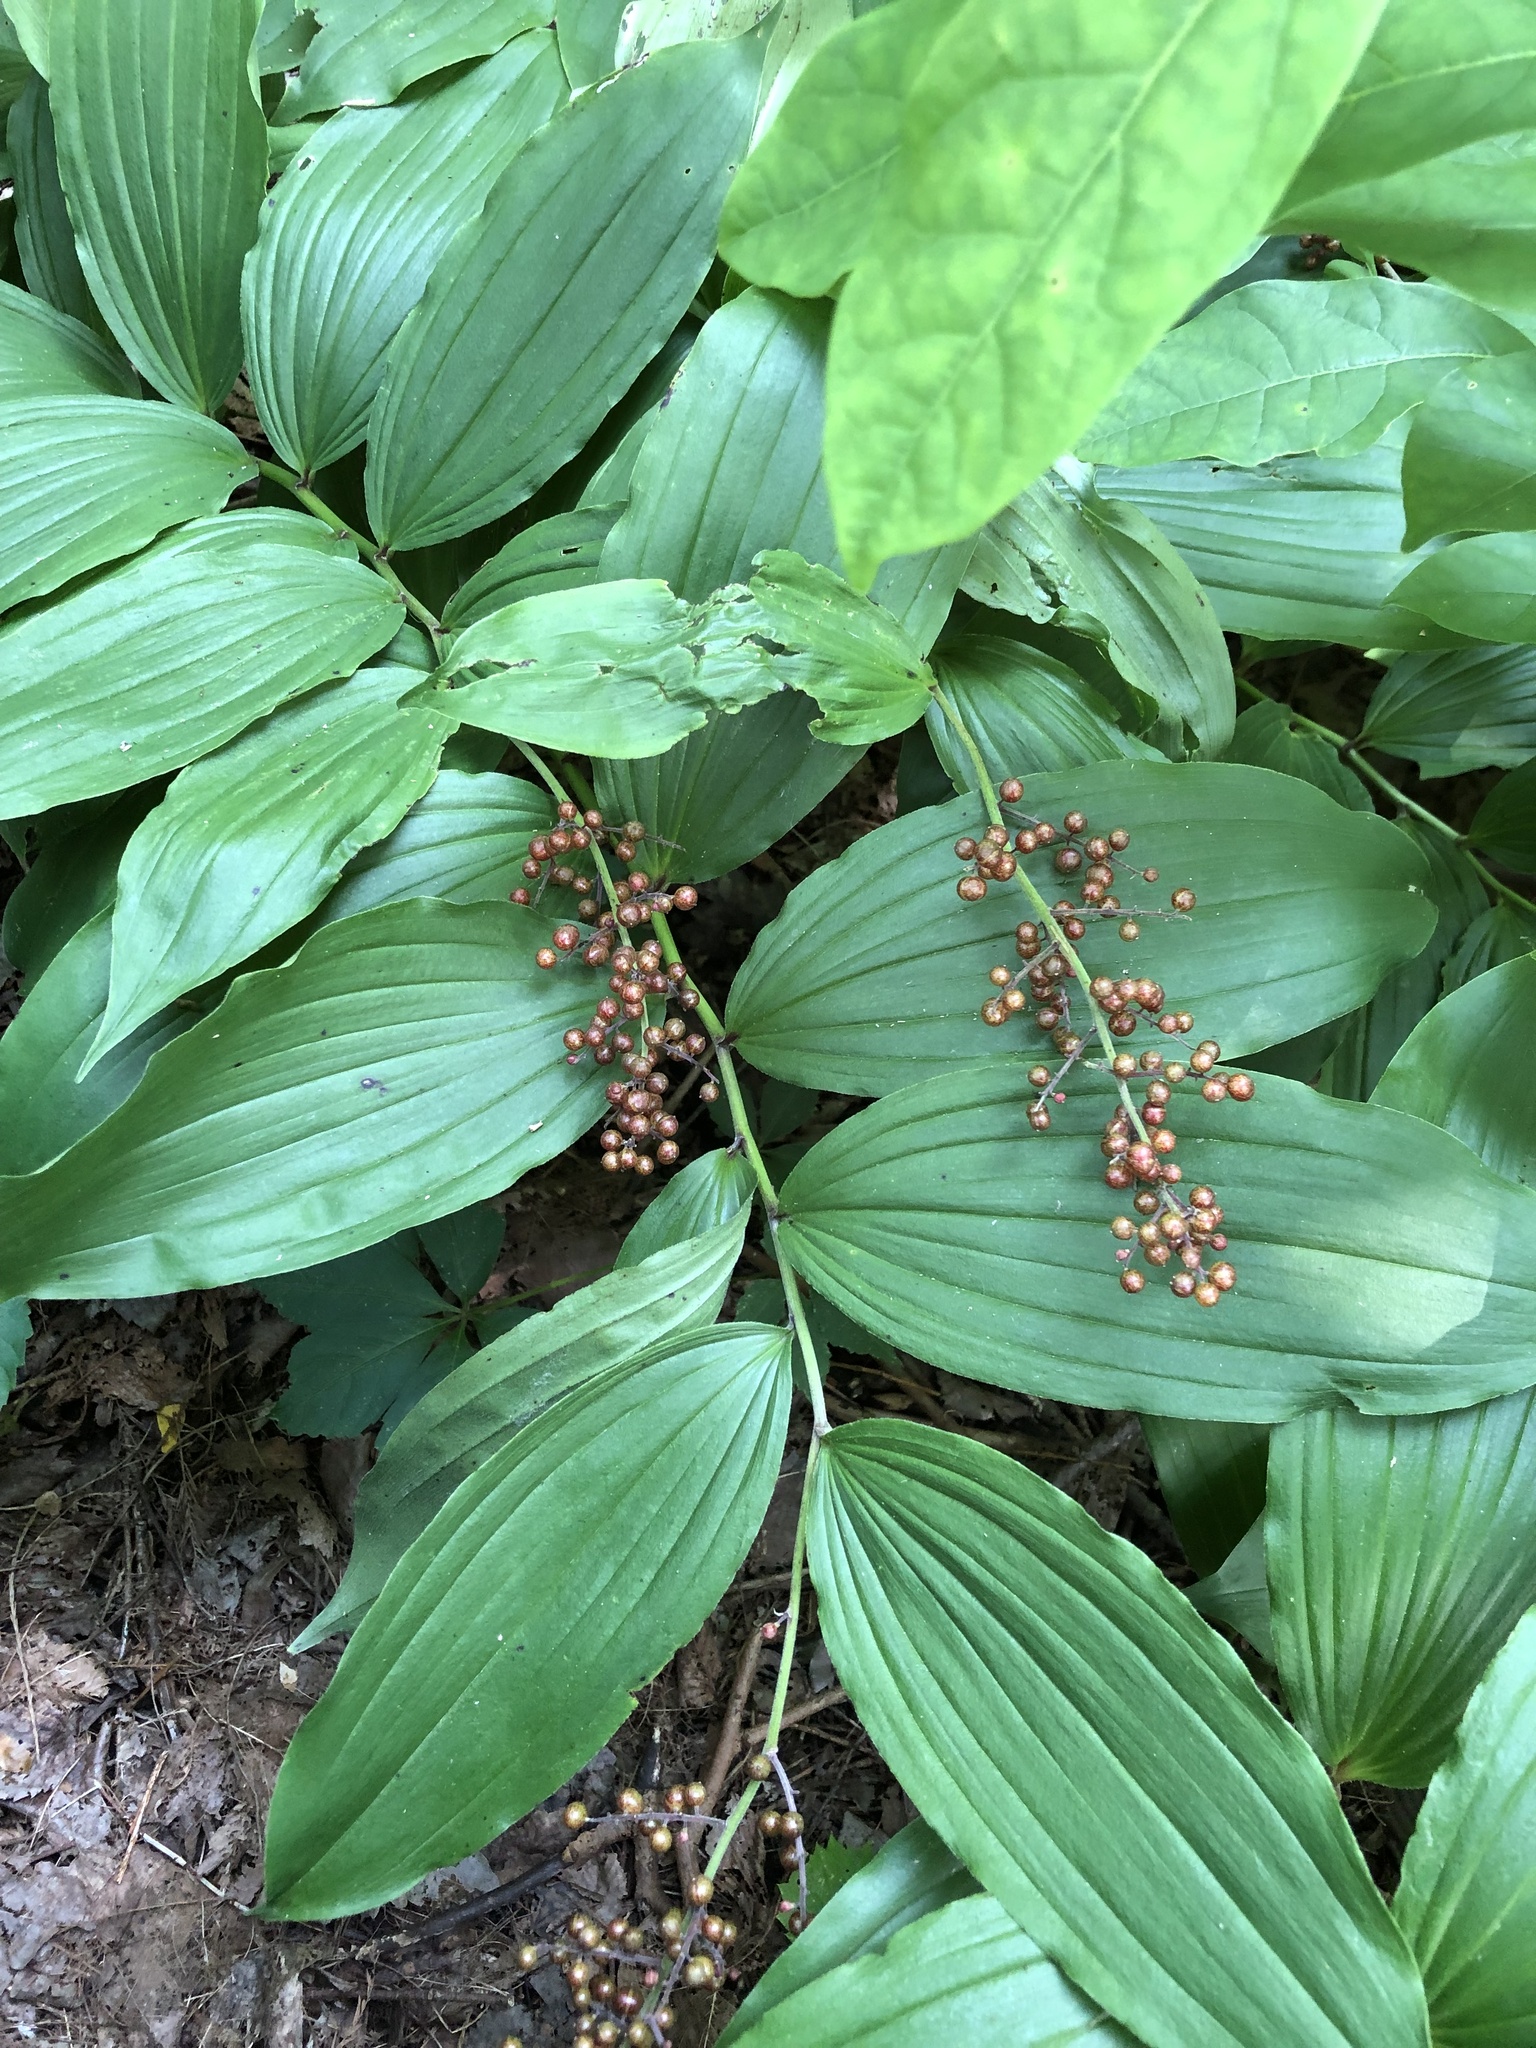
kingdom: Plantae
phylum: Tracheophyta
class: Liliopsida
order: Asparagales
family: Asparagaceae
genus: Maianthemum
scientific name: Maianthemum racemosum
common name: False spikenard
